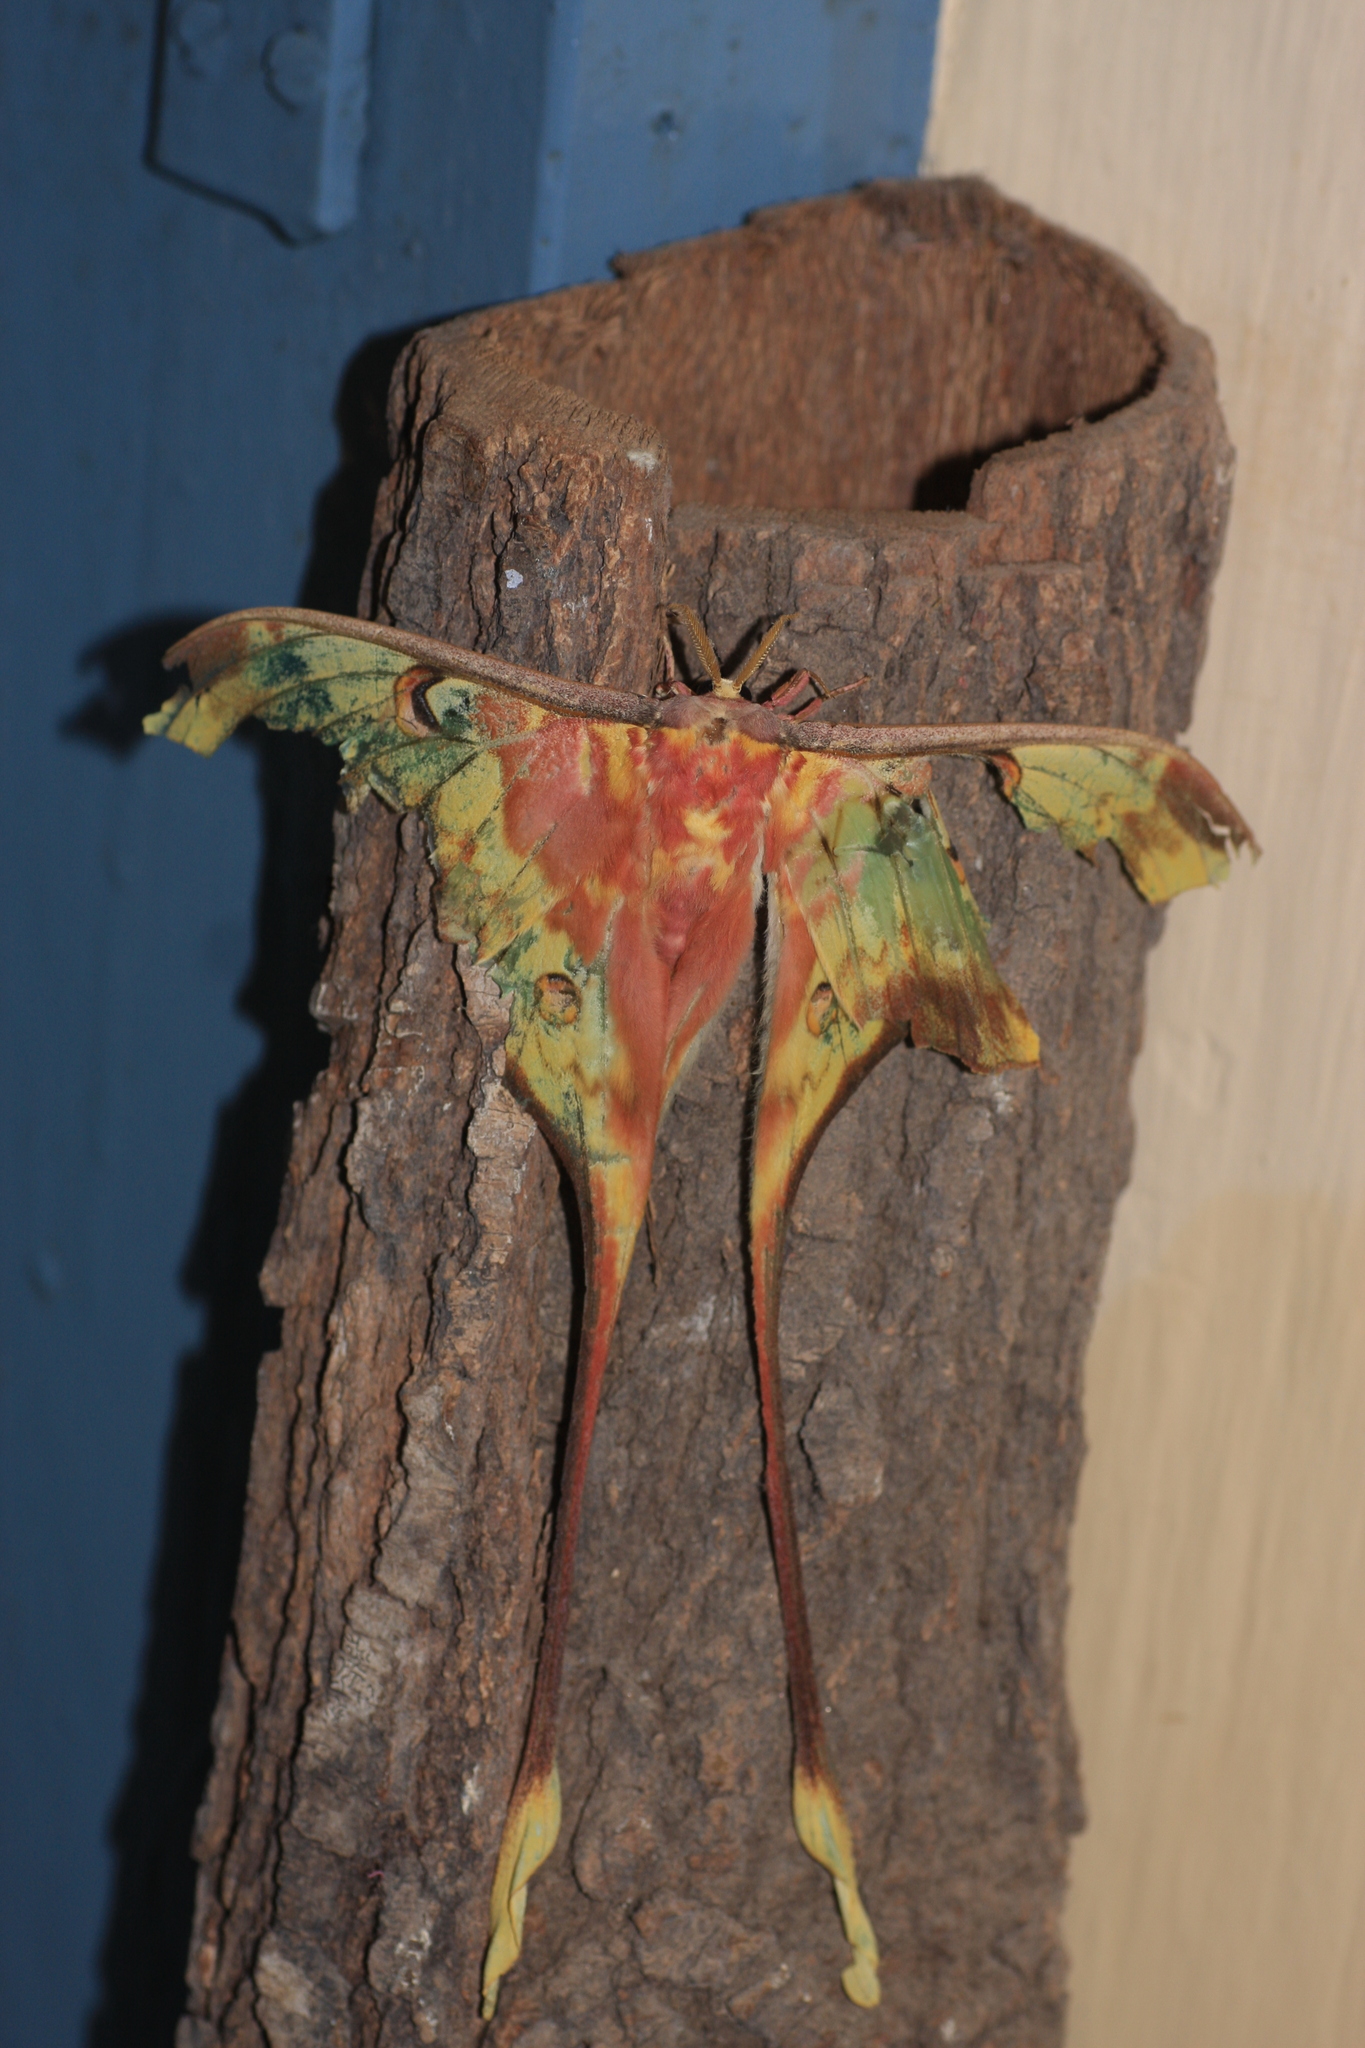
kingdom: Animalia
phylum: Arthropoda
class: Insecta
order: Lepidoptera
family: Saturniidae
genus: Actias
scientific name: Actias
